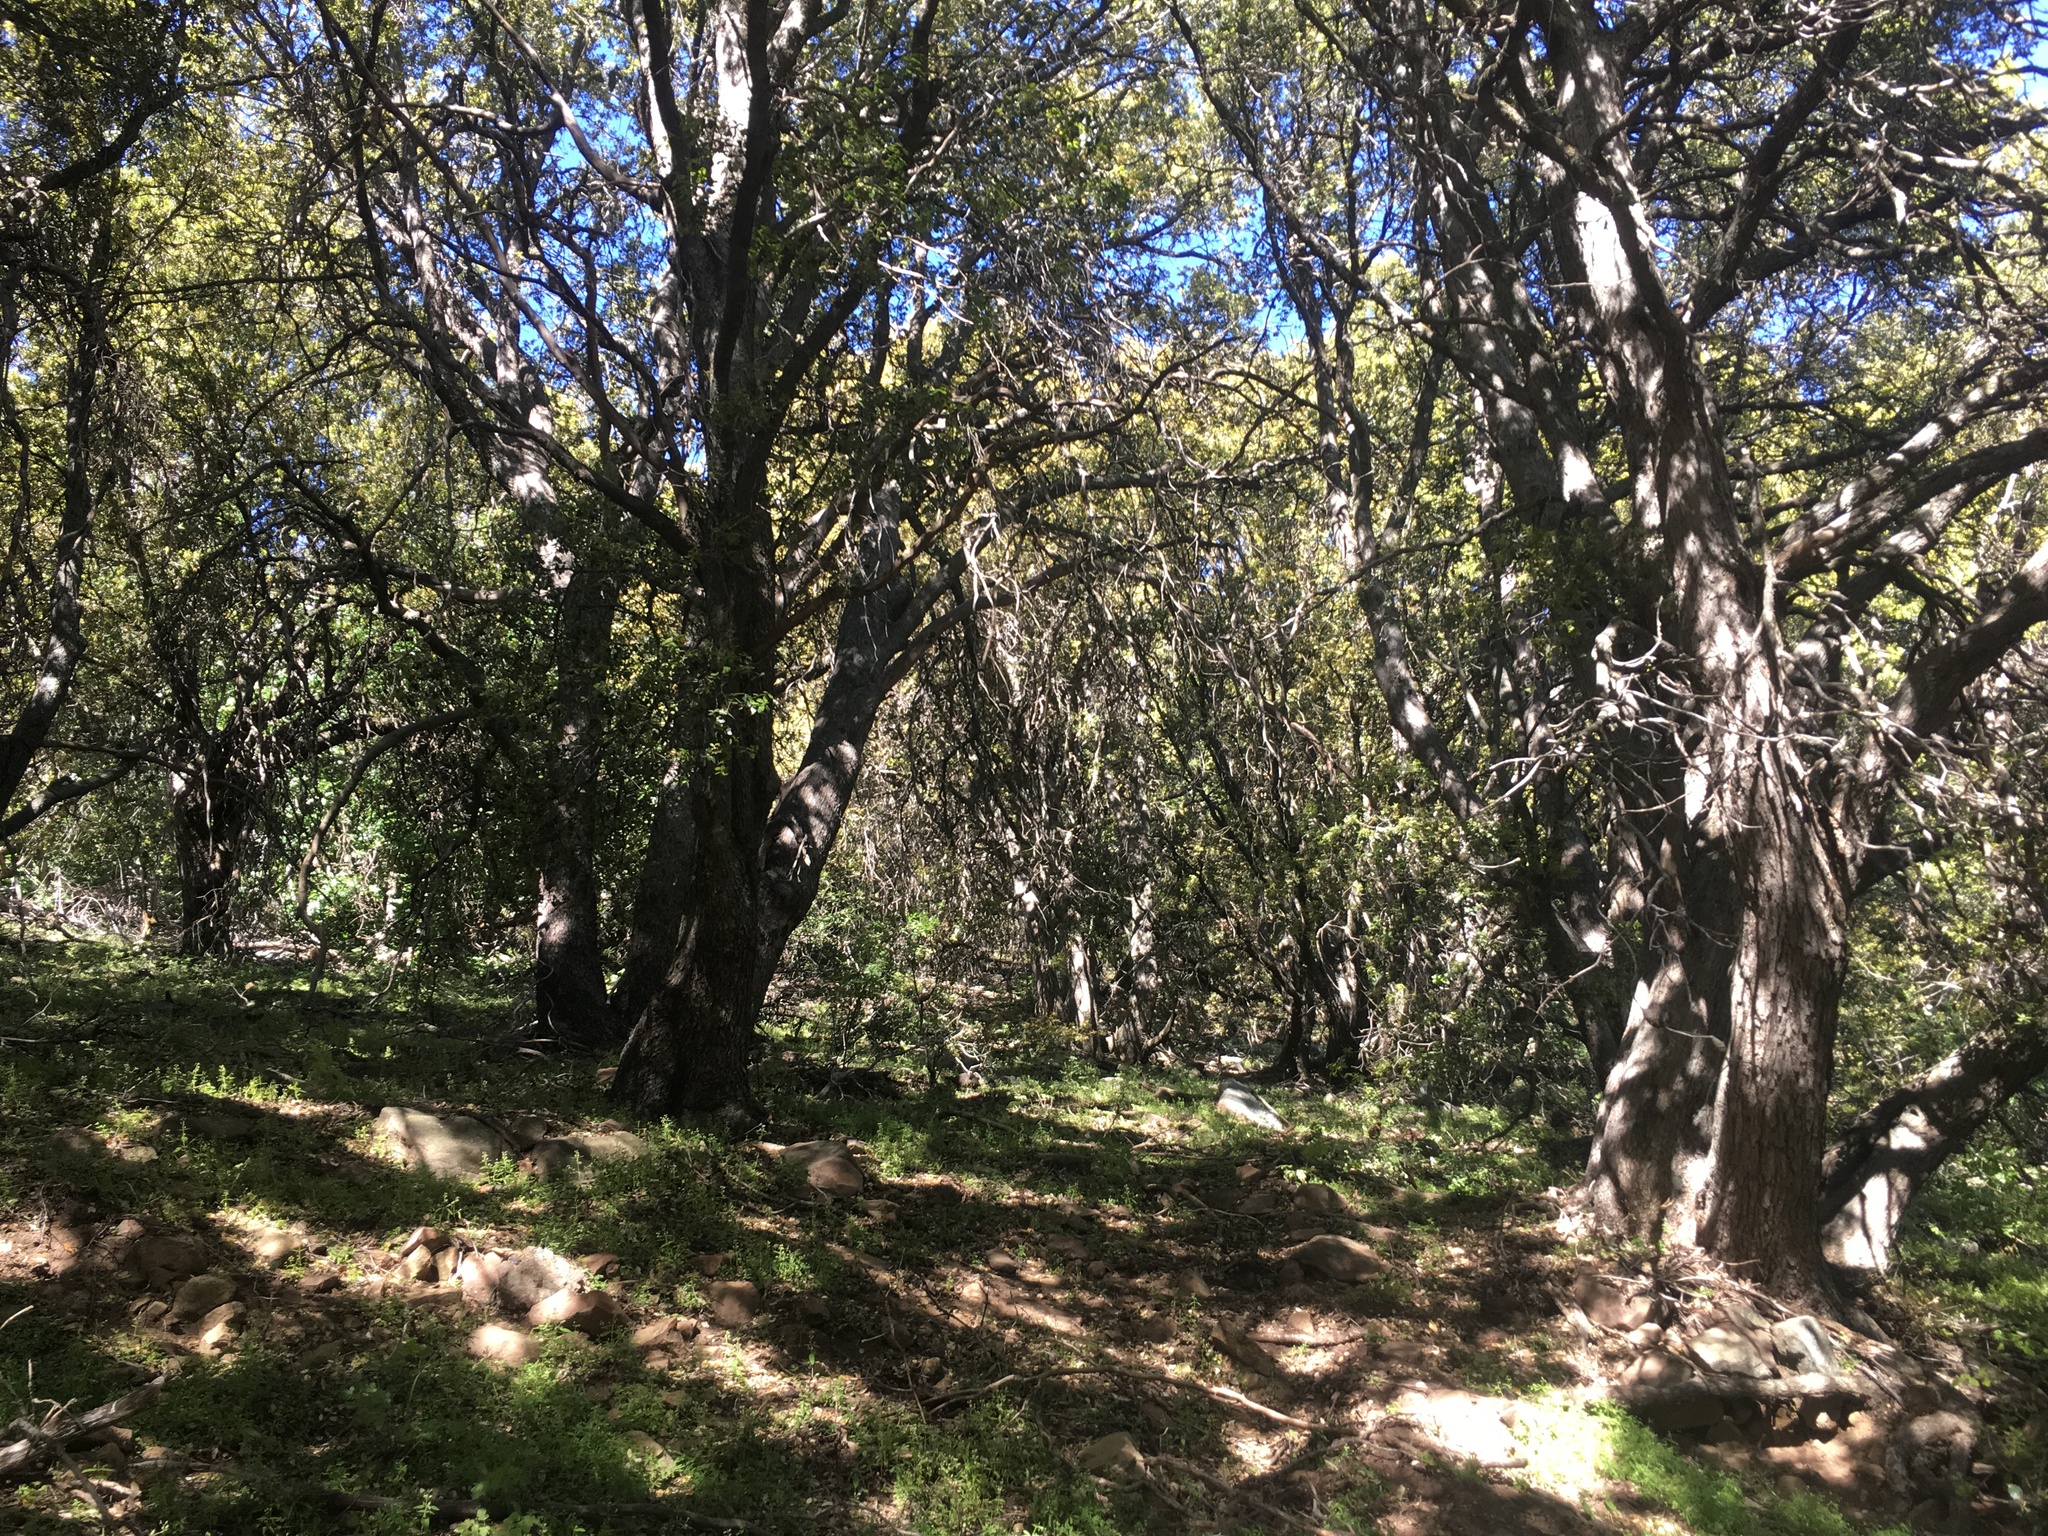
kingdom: Plantae
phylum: Tracheophyta
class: Magnoliopsida
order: Fagales
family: Fagaceae
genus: Quercus
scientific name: Quercus chrysolepis
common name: Canyon live oak
